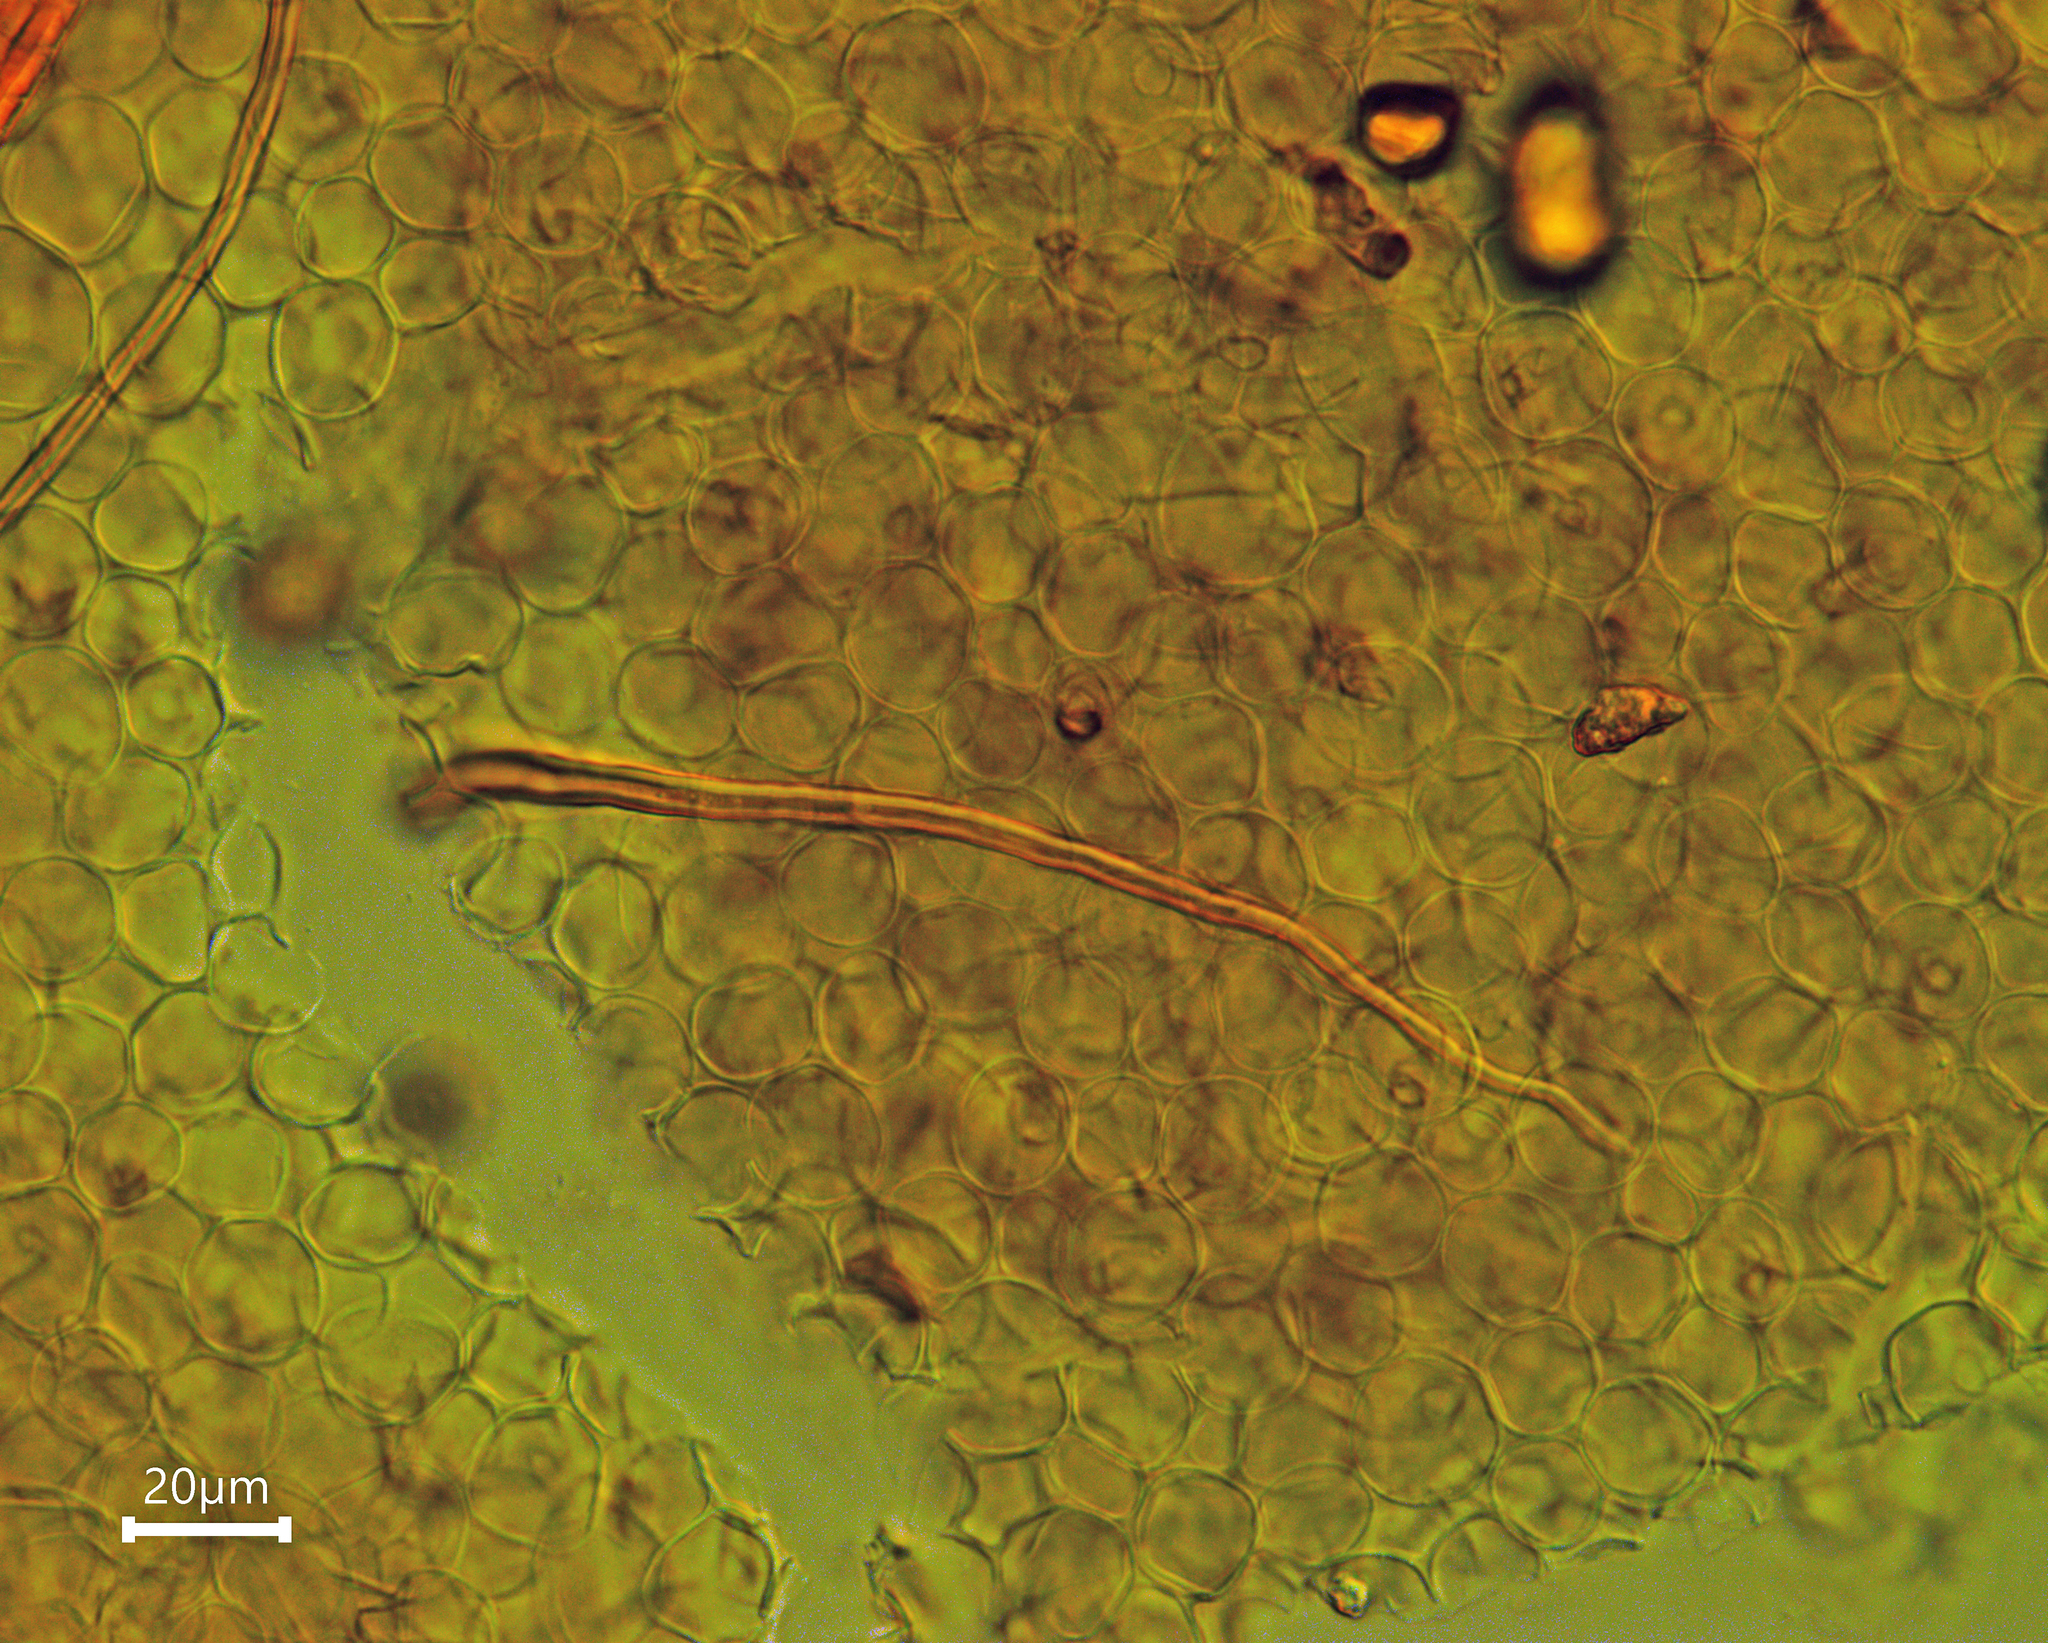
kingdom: Fungi
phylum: Basidiomycota
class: Agaricomycetes
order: Agaricales
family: Psathyrellaceae
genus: Parasola
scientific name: Parasola conopilea
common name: Conical brittlestem
